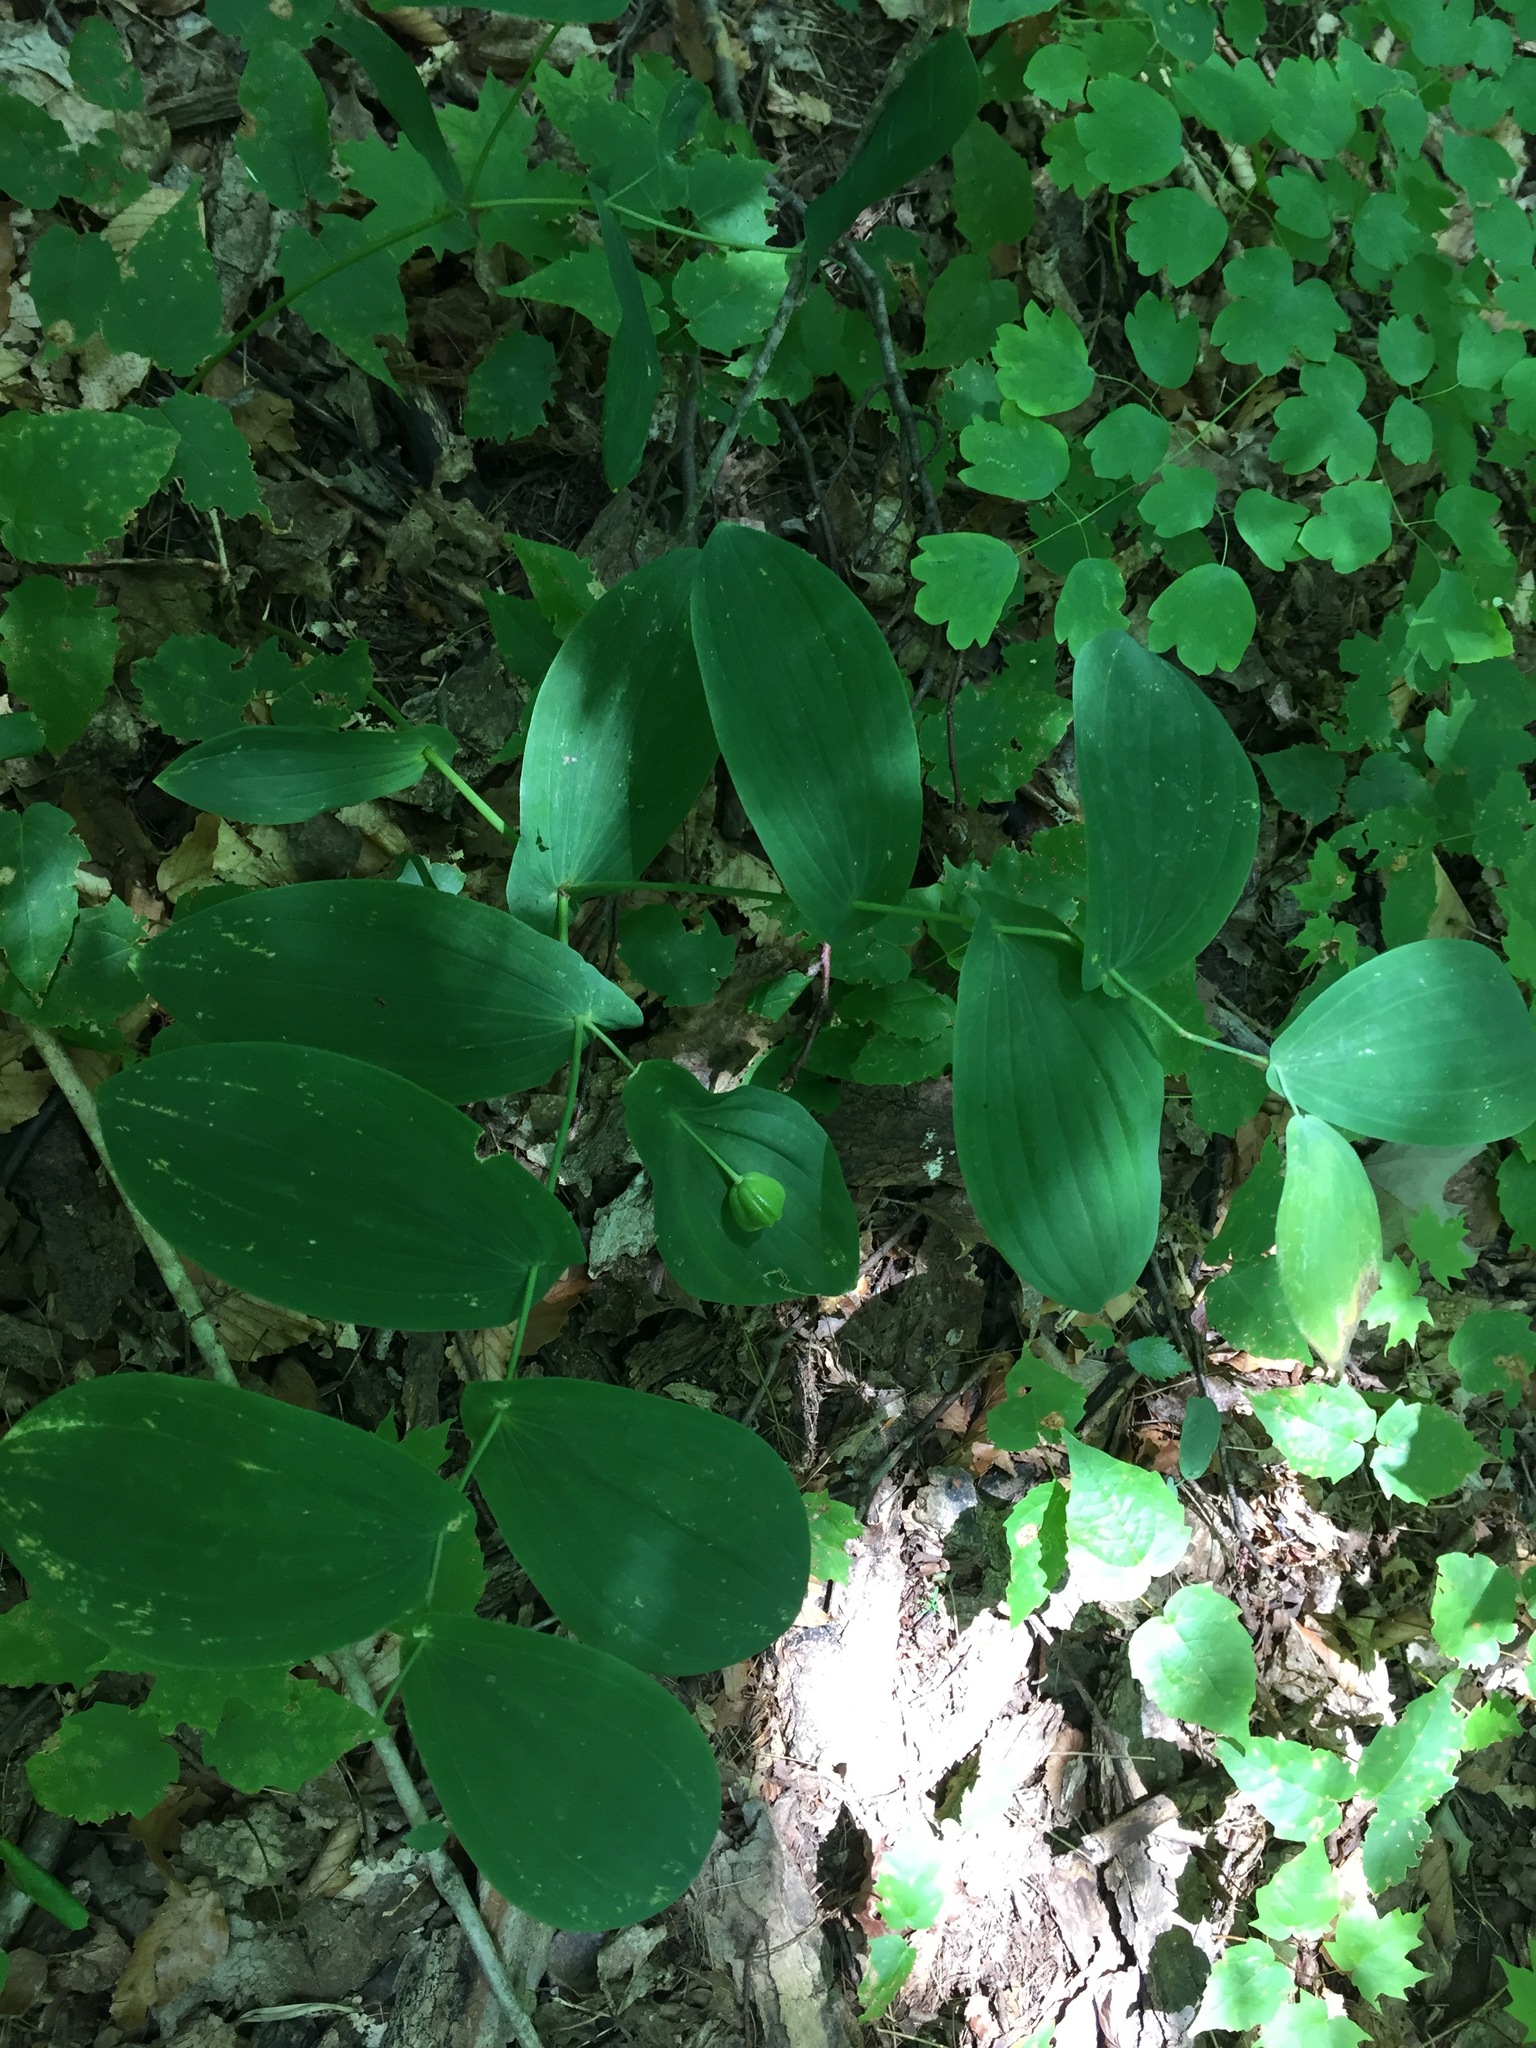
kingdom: Plantae
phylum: Tracheophyta
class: Liliopsida
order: Liliales
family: Colchicaceae
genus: Uvularia
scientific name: Uvularia grandiflora
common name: Bellwort
